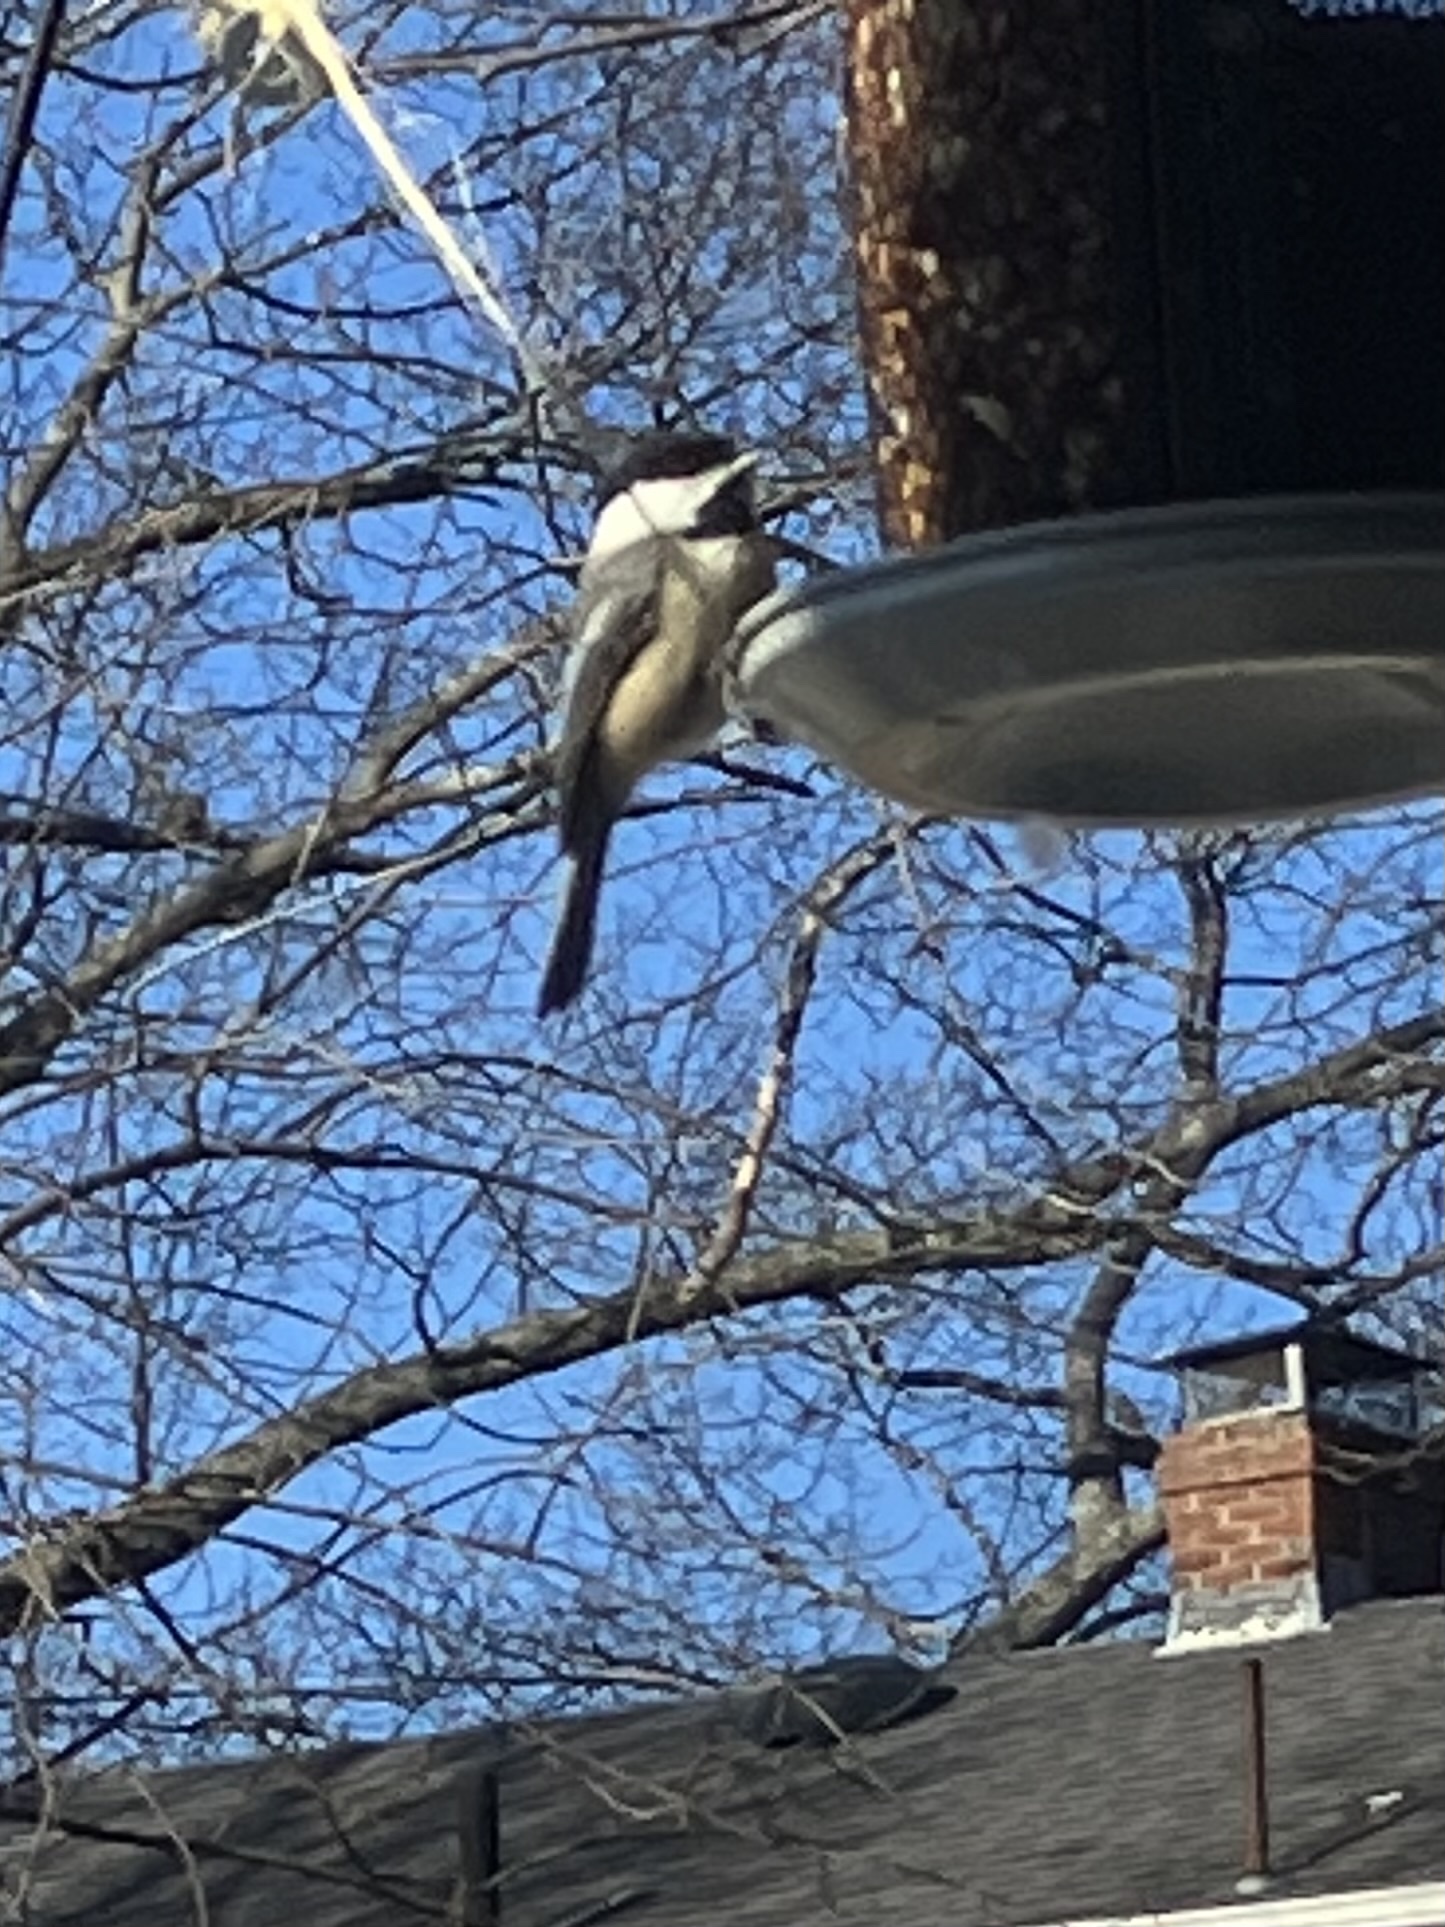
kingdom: Animalia
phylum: Chordata
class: Aves
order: Passeriformes
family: Paridae
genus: Poecile
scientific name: Poecile atricapillus
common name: Black-capped chickadee
